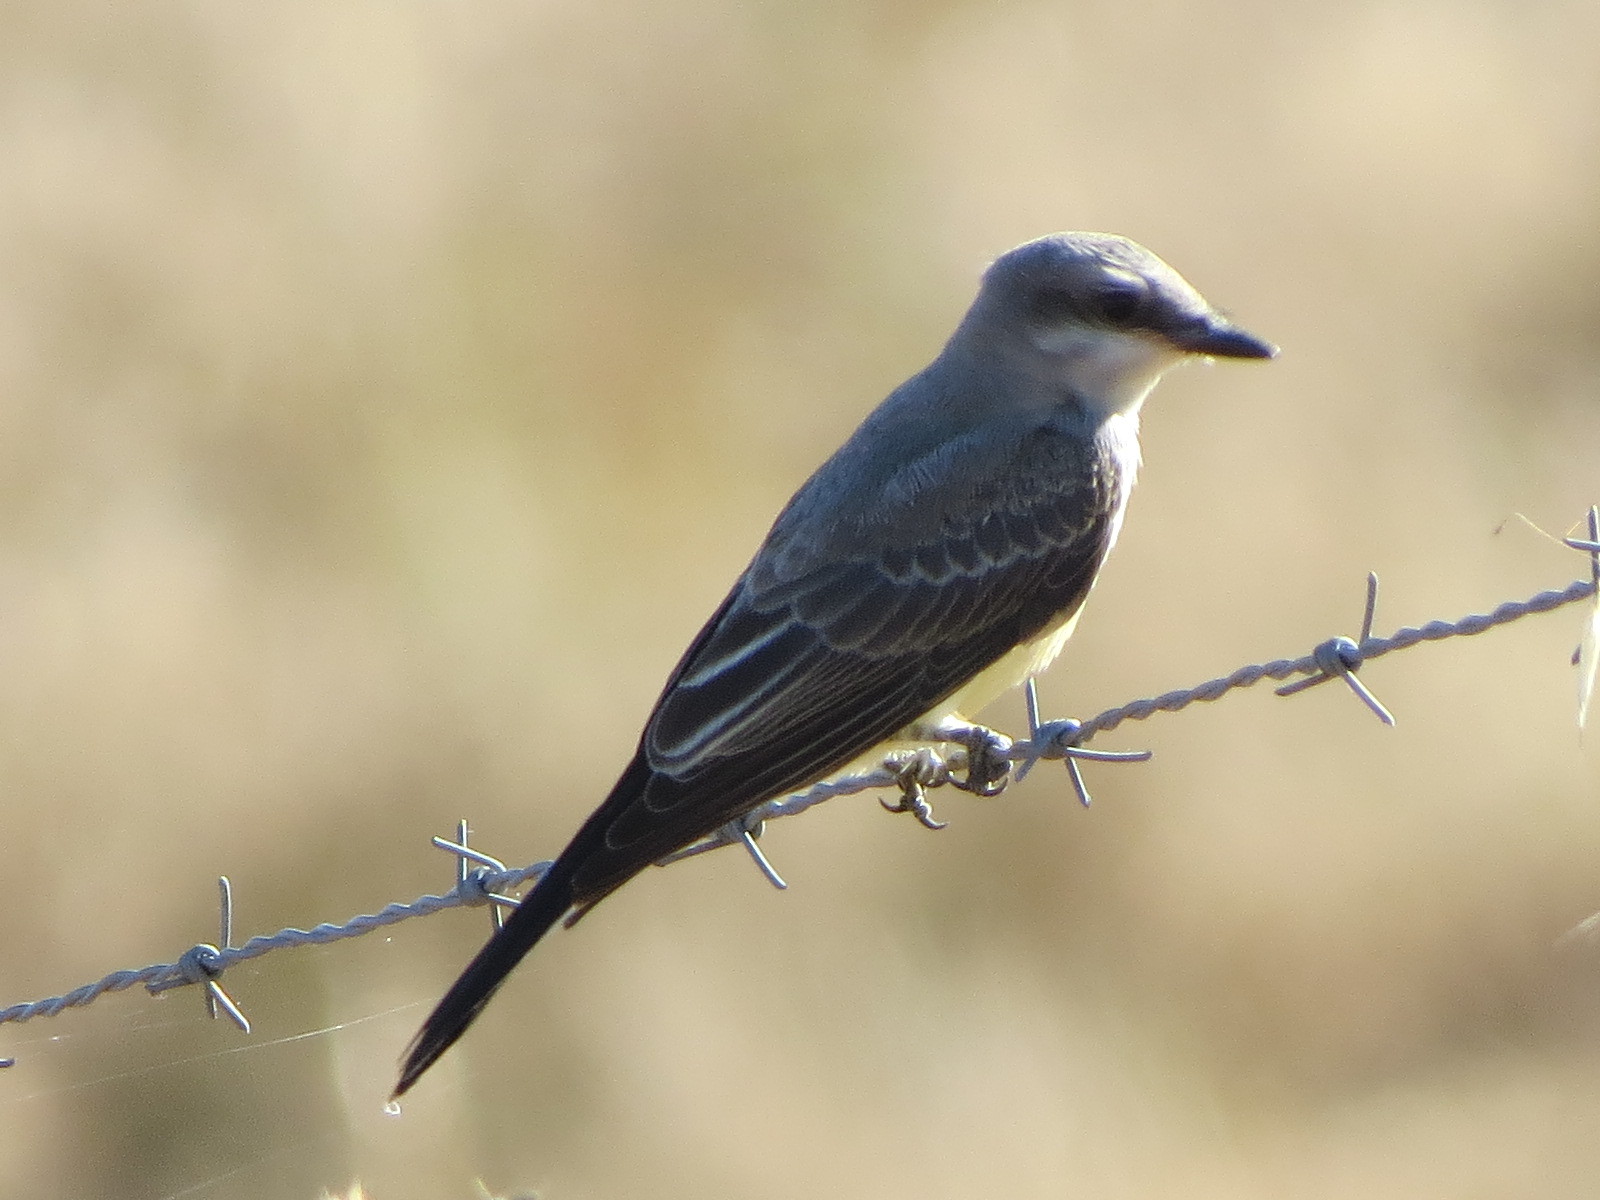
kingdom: Animalia
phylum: Chordata
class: Aves
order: Passeriformes
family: Tyrannidae
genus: Tyrannus
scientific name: Tyrannus verticalis
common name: Western kingbird
